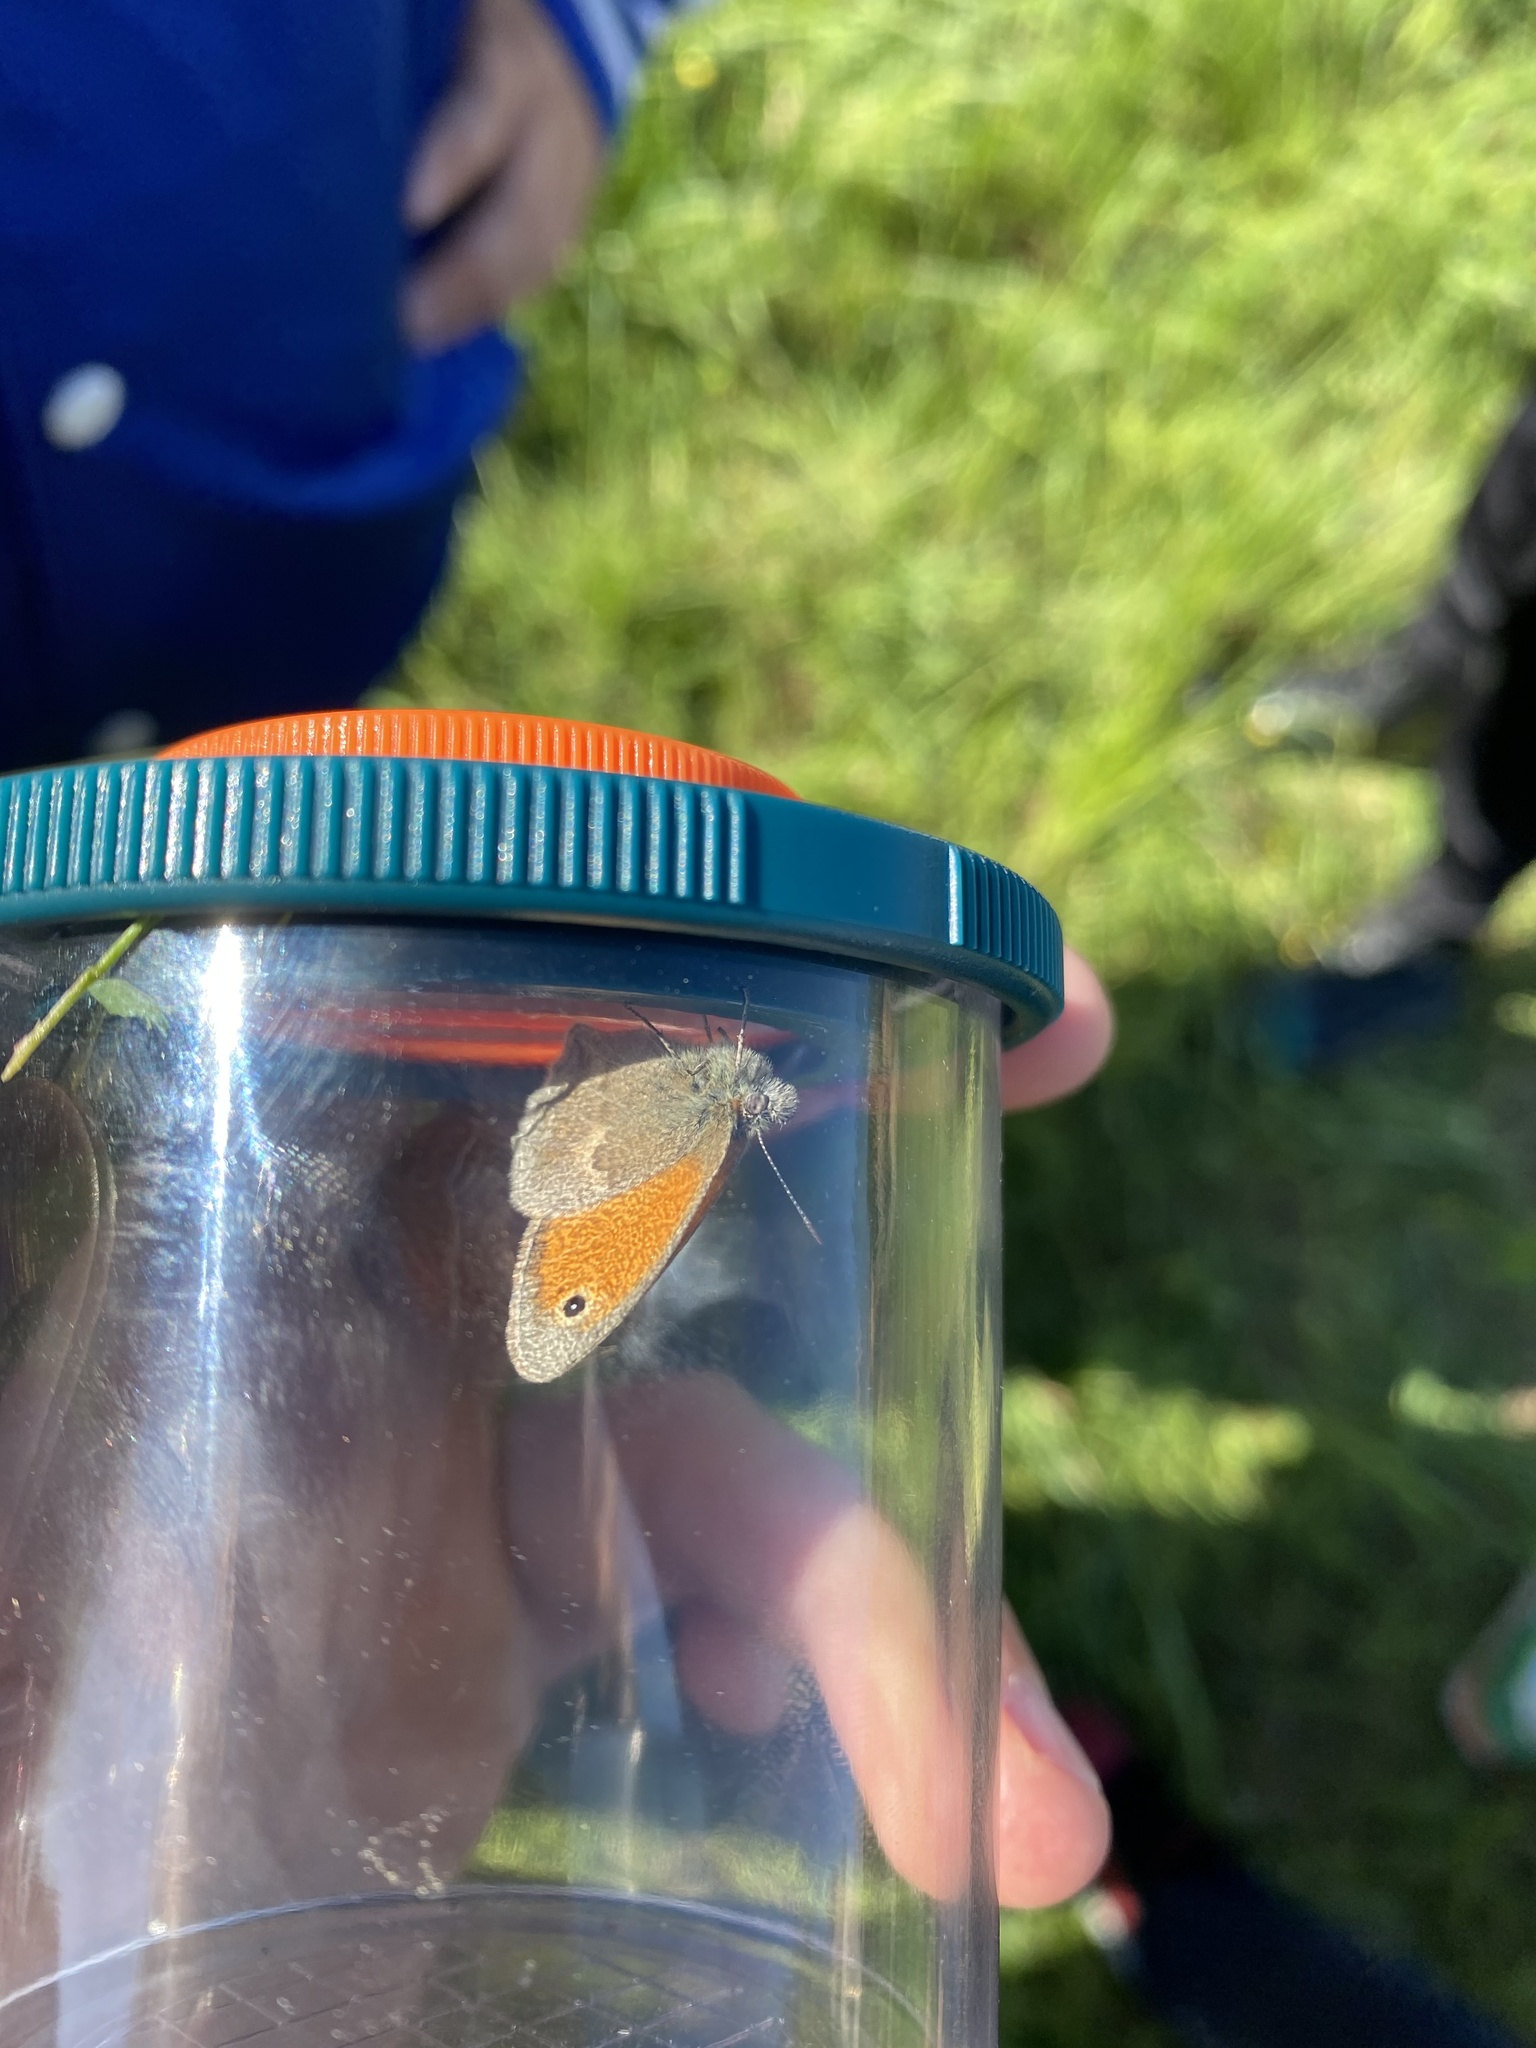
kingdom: Animalia
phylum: Arthropoda
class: Insecta
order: Lepidoptera
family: Nymphalidae
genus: Coenonympha
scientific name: Coenonympha pamphilus
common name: Small heath
